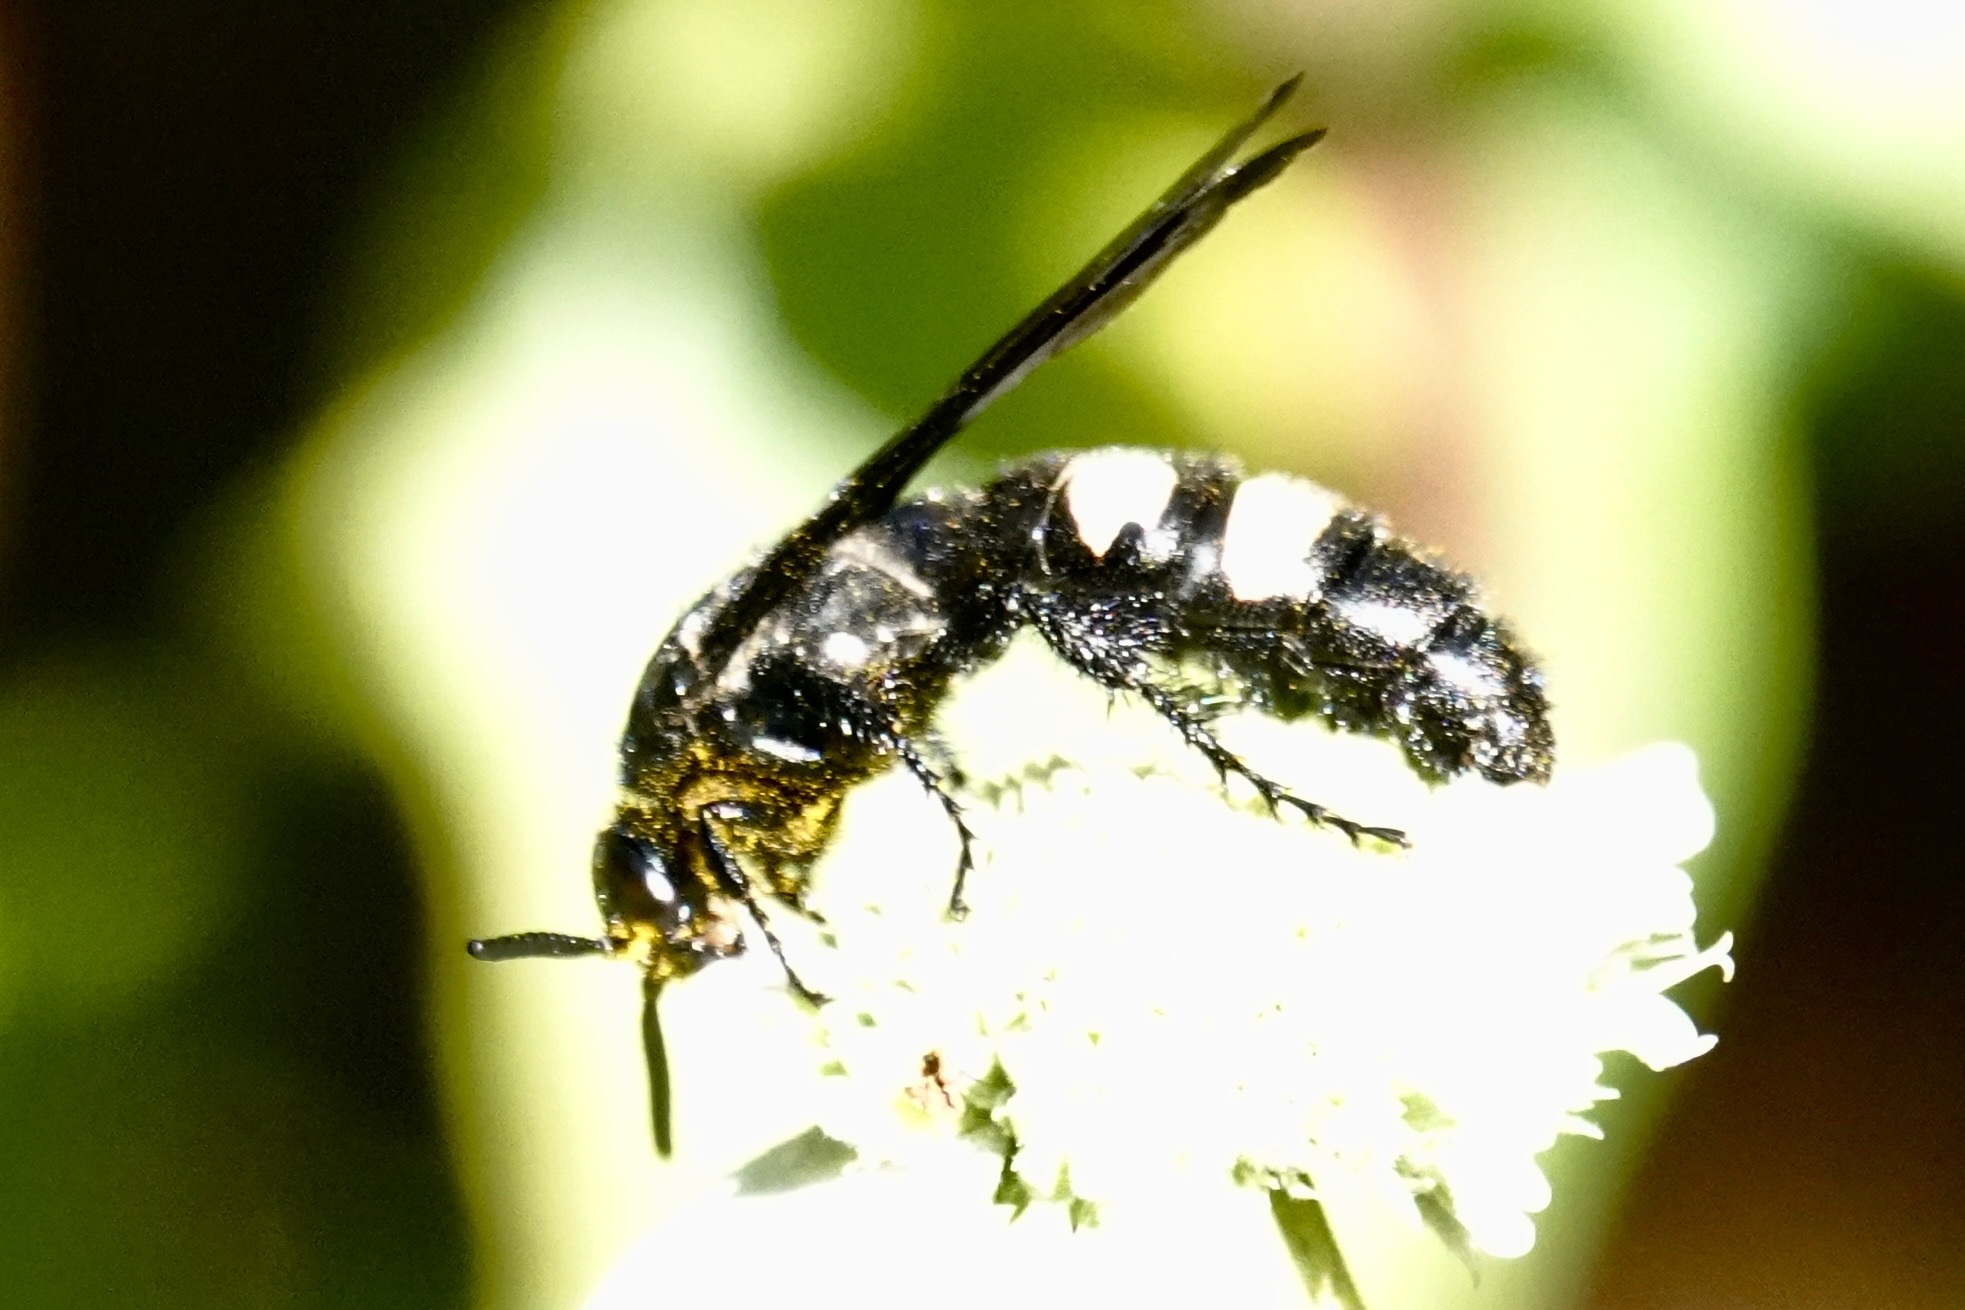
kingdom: Animalia
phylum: Arthropoda
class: Insecta
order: Hymenoptera
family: Scoliidae
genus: Scolia
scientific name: Scolia bicincta
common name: Double-banded scoliid wasp
